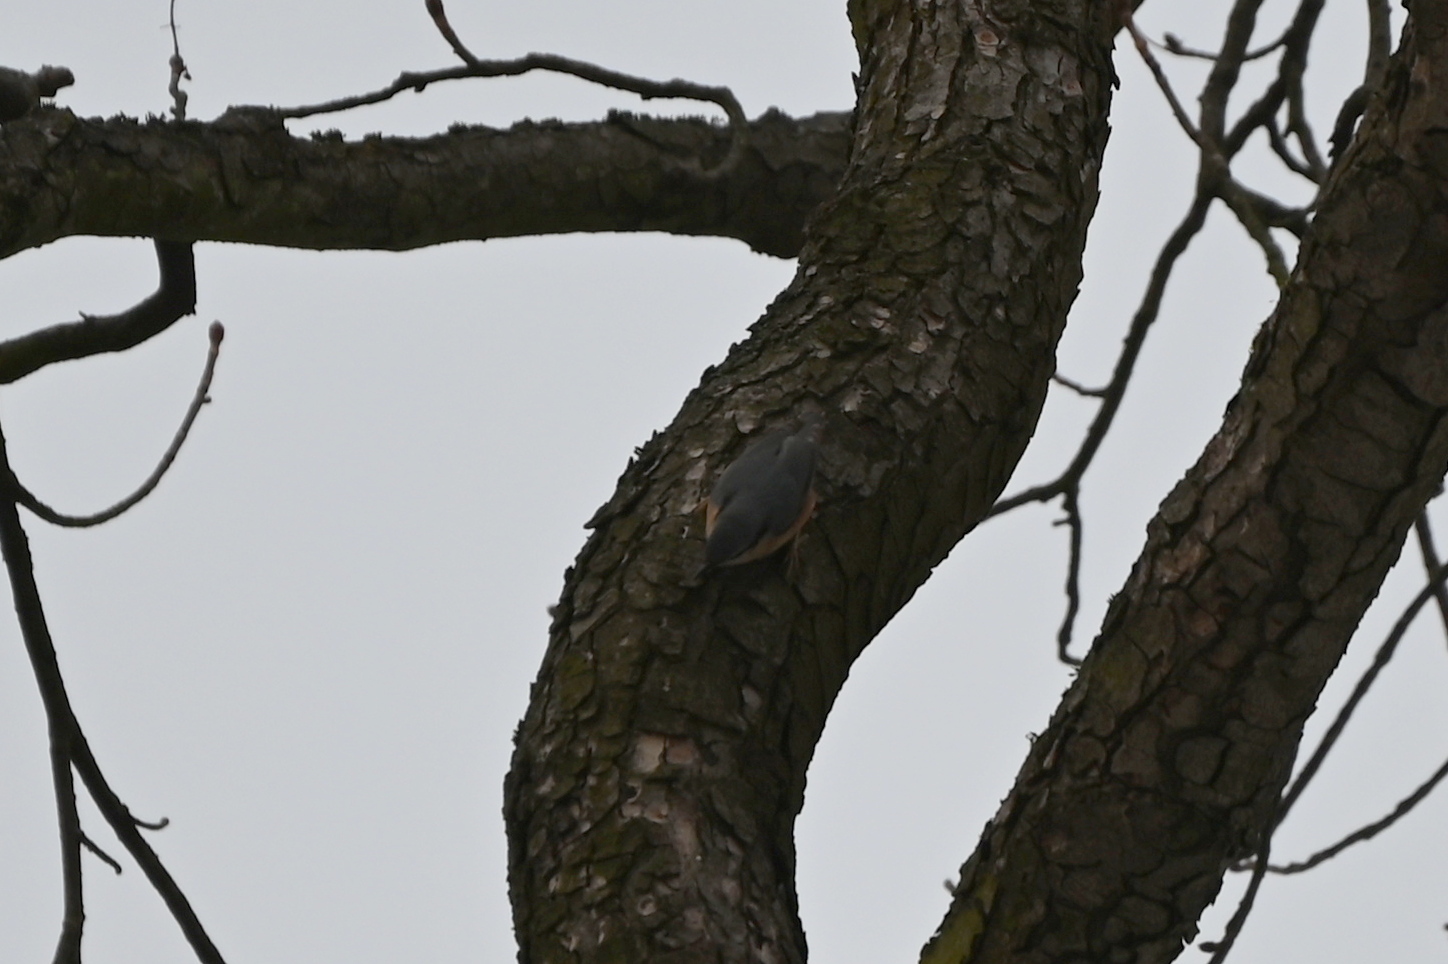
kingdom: Animalia
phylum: Chordata
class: Aves
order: Passeriformes
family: Sittidae
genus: Sitta
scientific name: Sitta europaea
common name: Eurasian nuthatch
